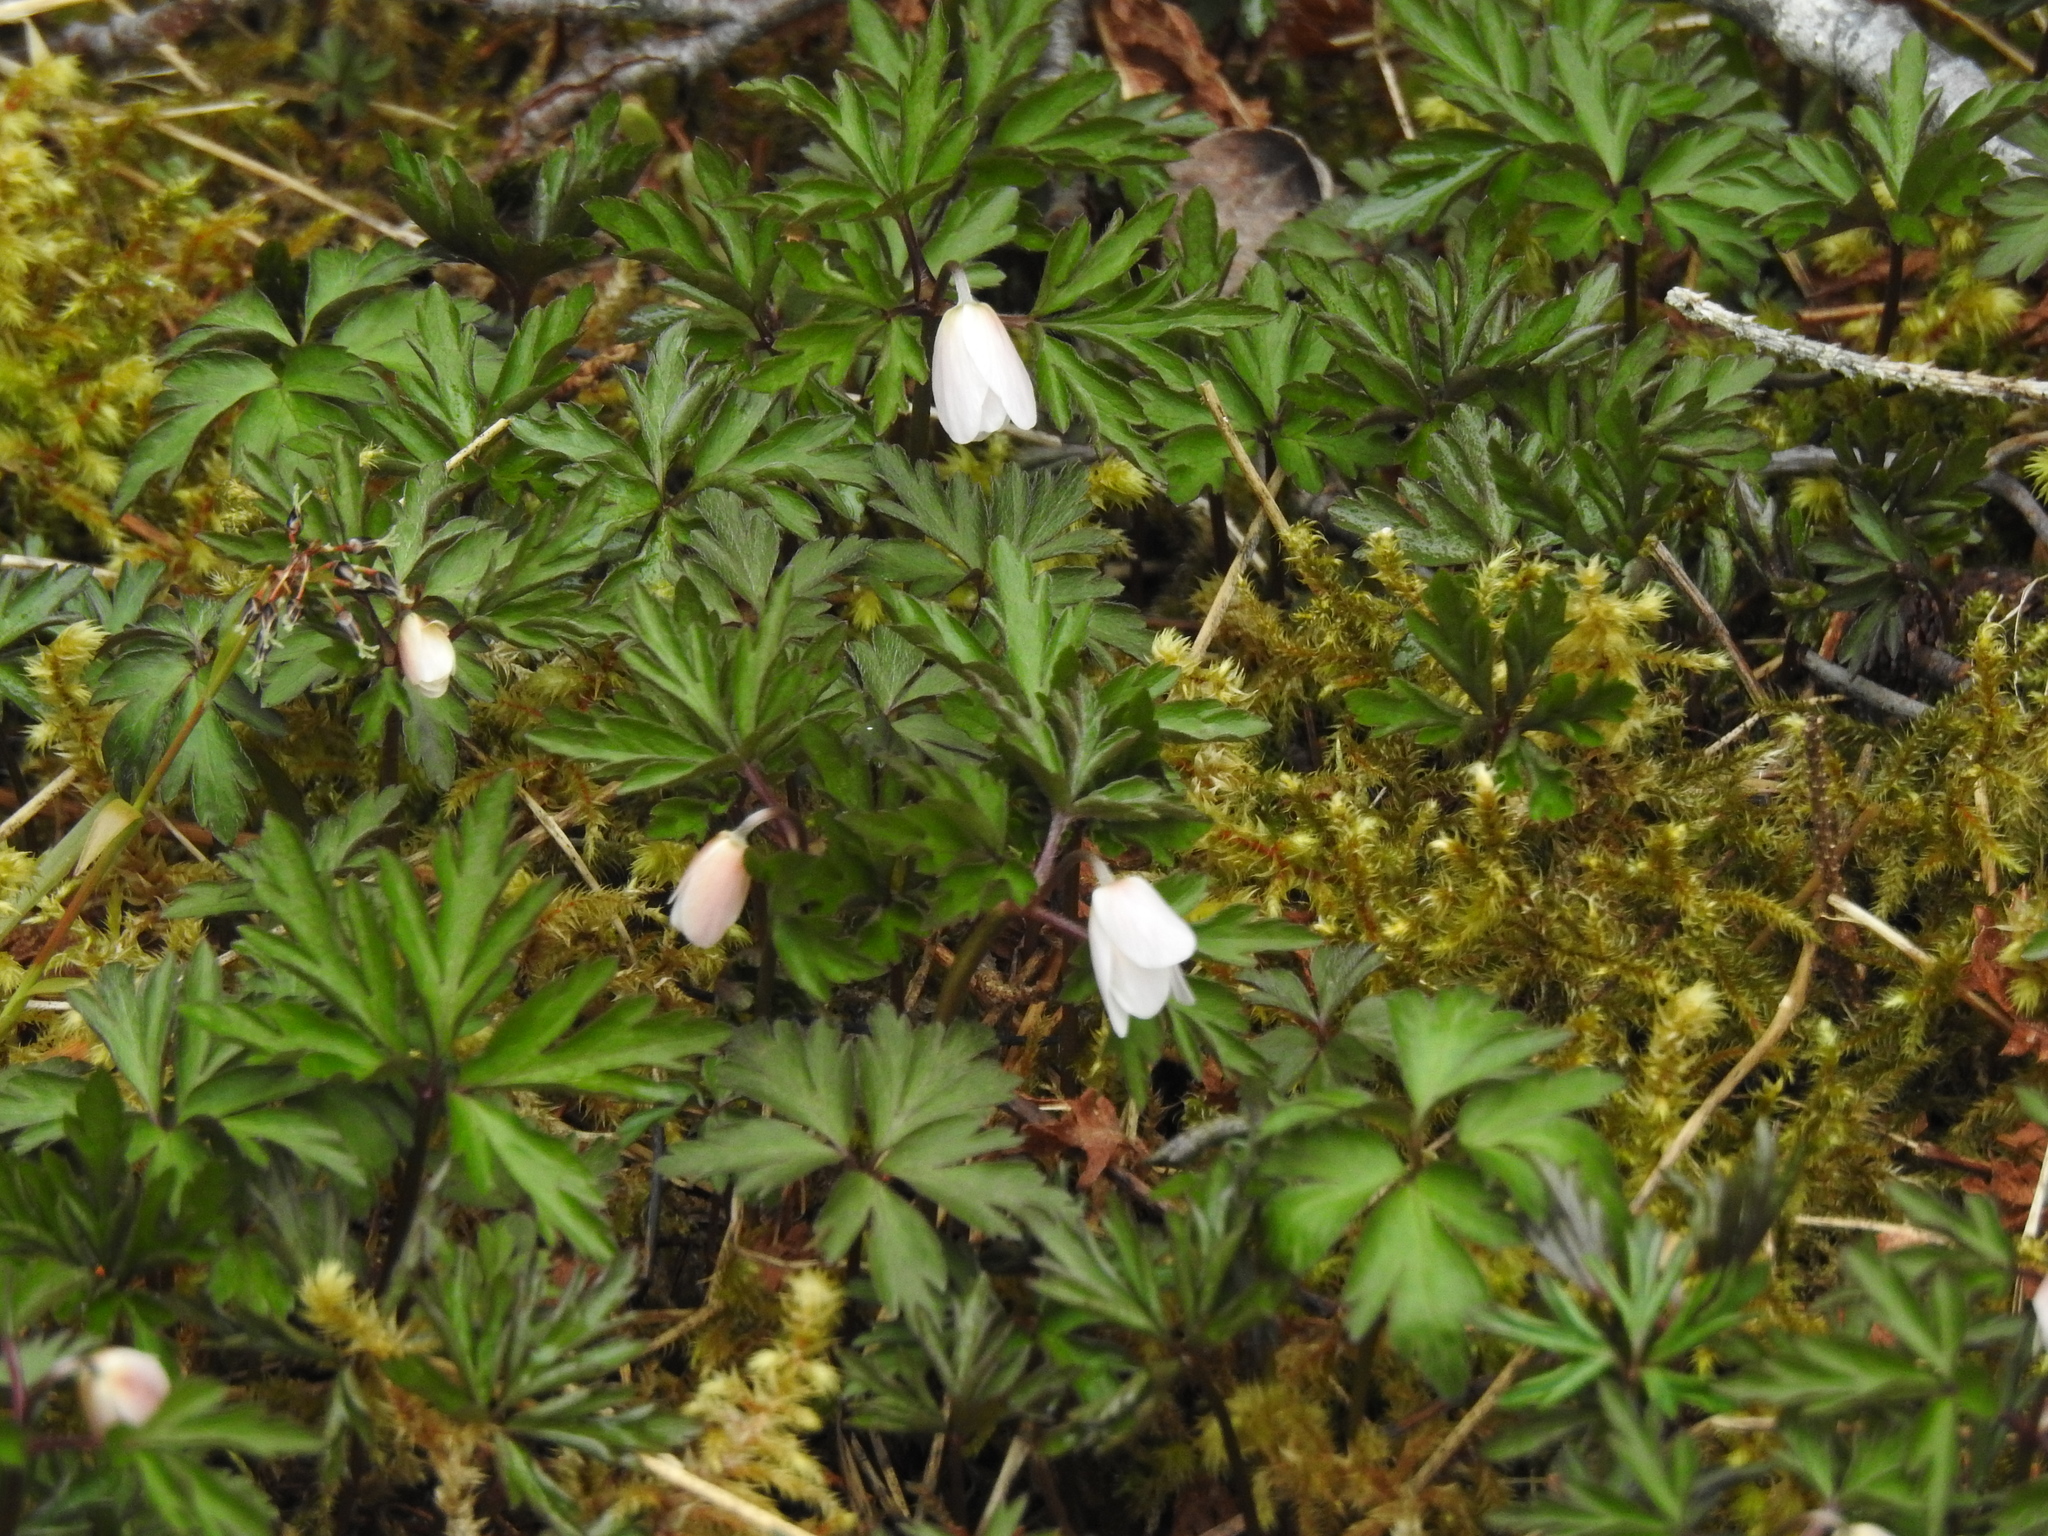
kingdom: Plantae
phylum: Tracheophyta
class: Magnoliopsida
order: Ranunculales
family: Ranunculaceae
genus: Anemone
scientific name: Anemone nemorosa
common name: Wood anemone
